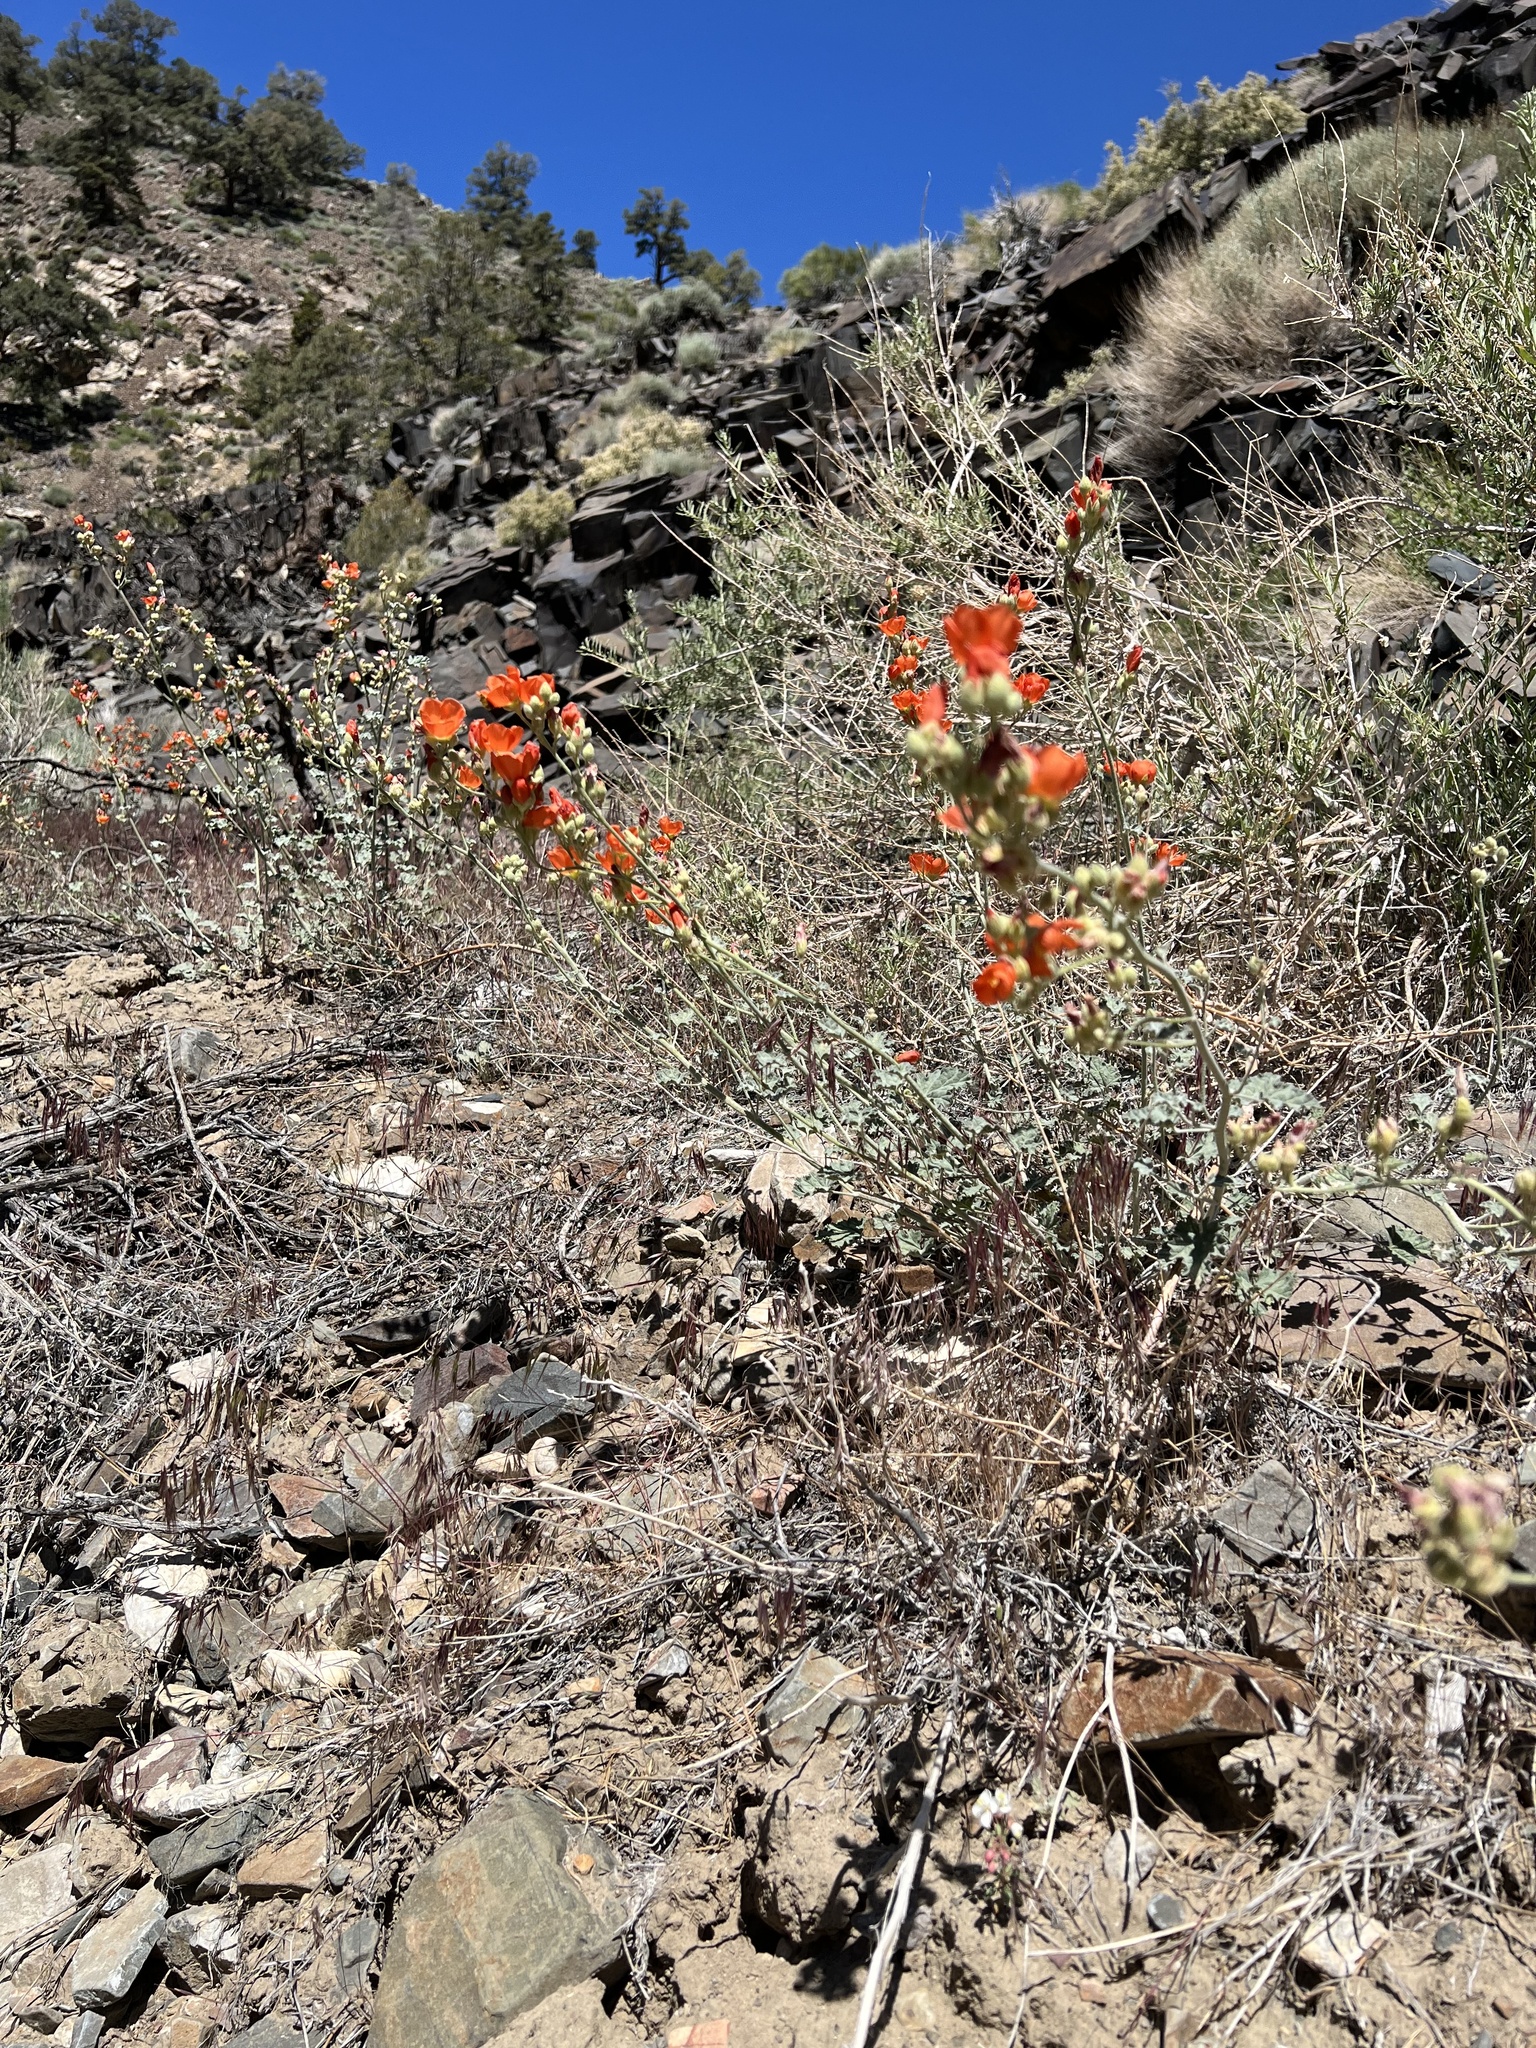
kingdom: Plantae
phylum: Tracheophyta
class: Magnoliopsida
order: Malvales
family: Malvaceae
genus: Sphaeralcea
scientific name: Sphaeralcea ambigua
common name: Apricot globe-mallow
